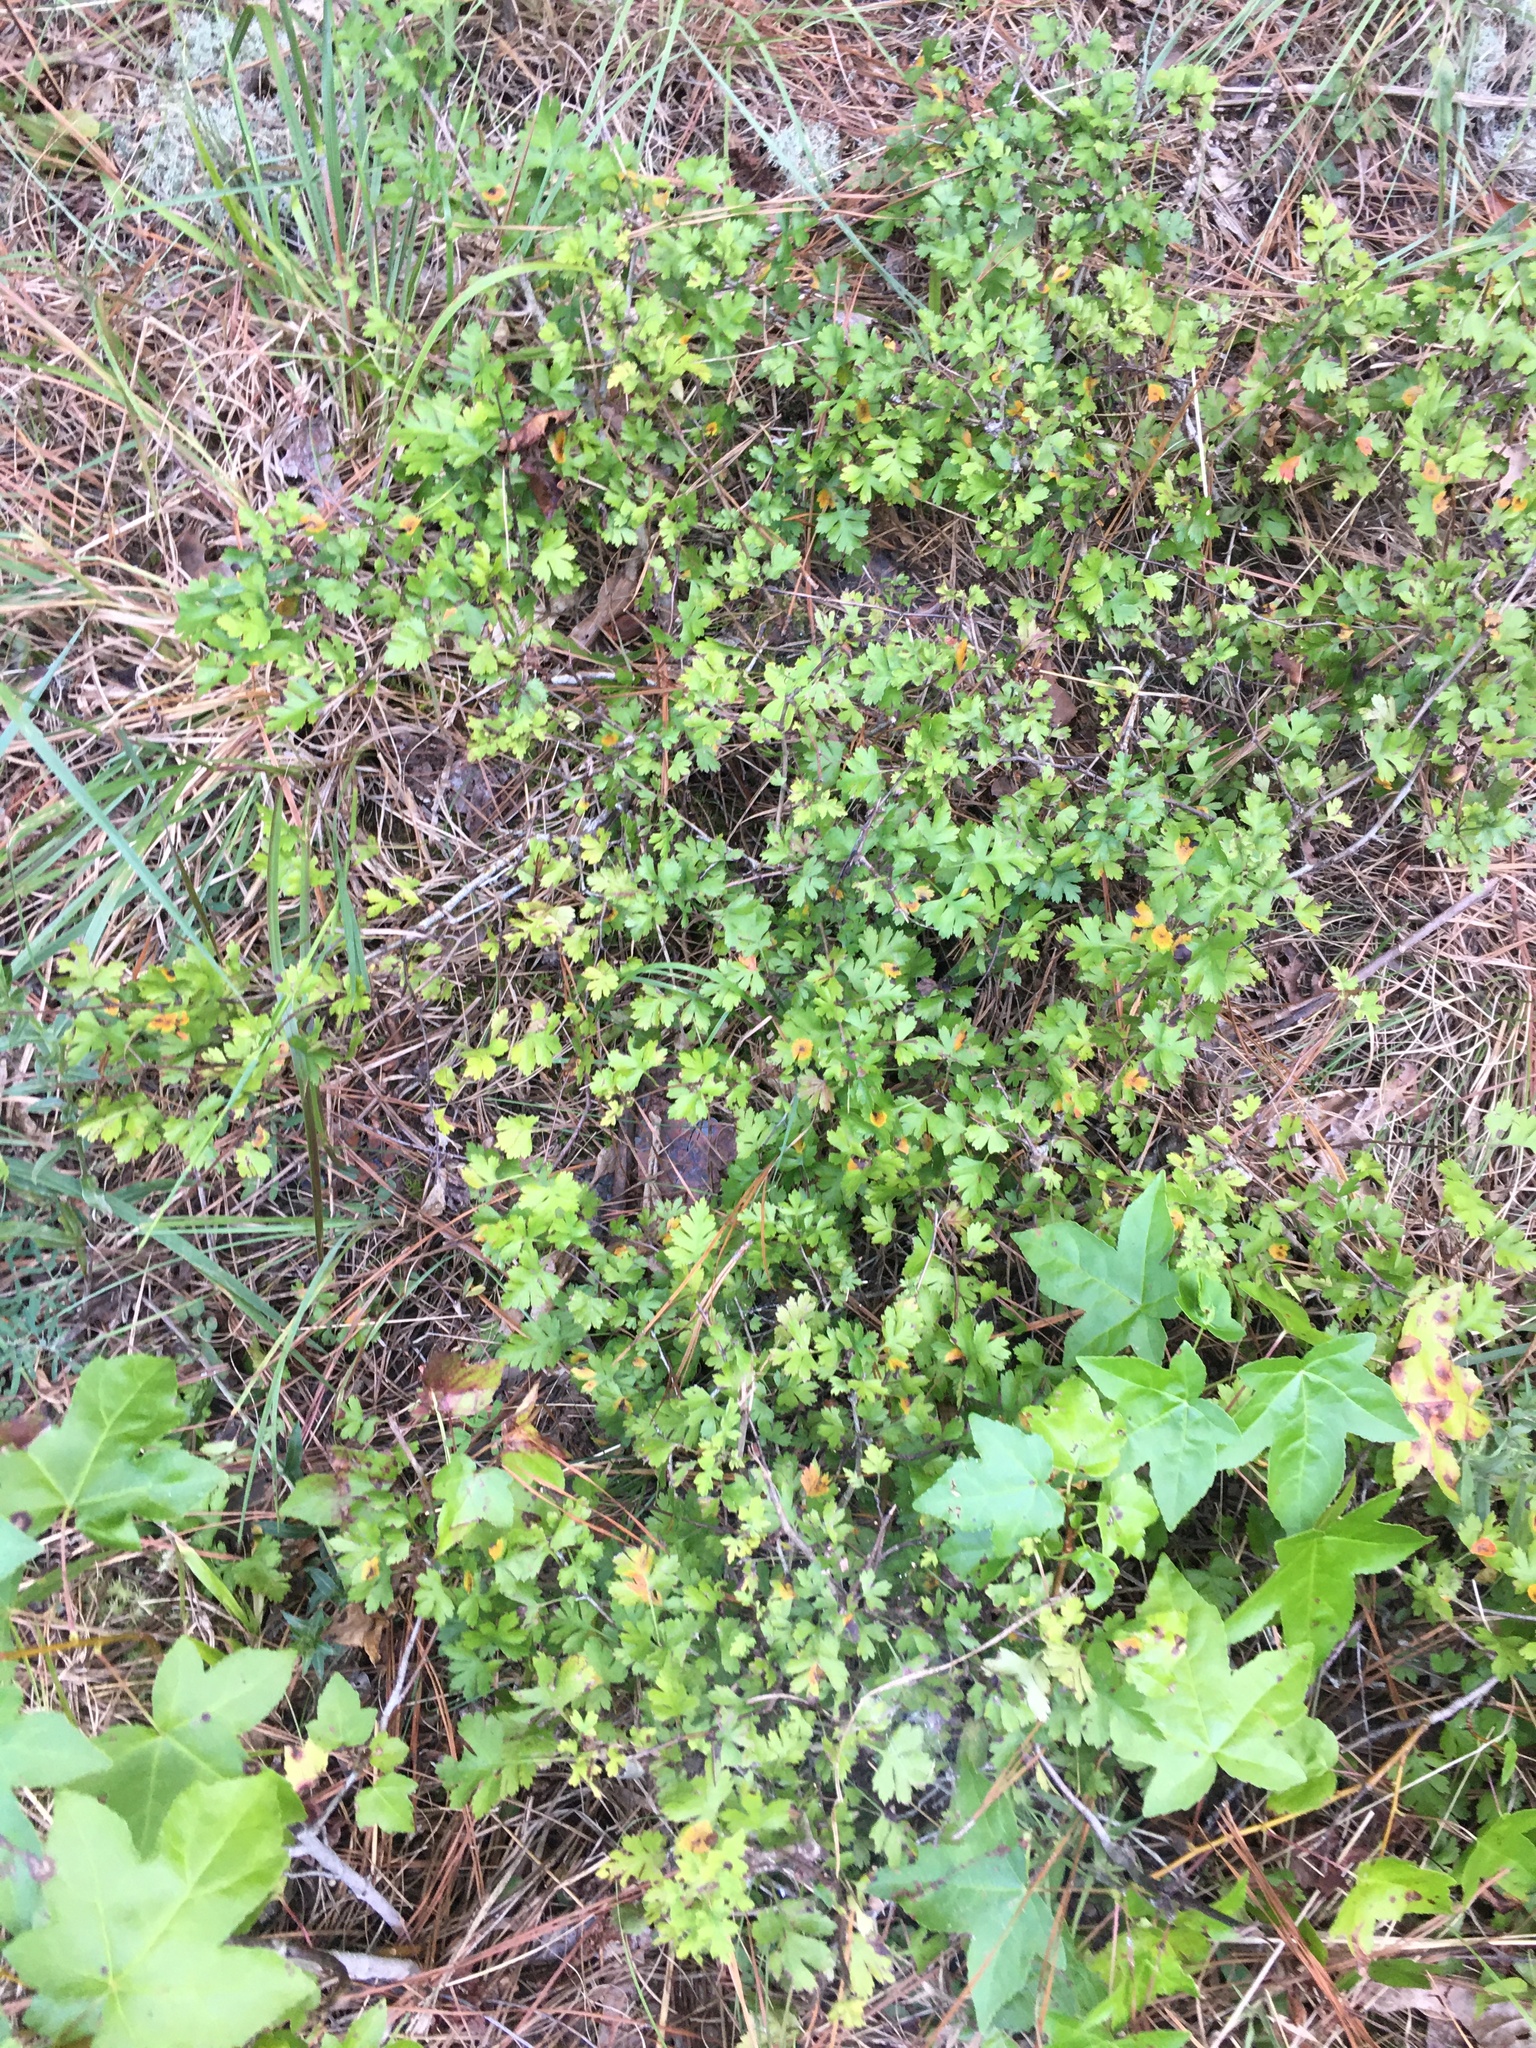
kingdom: Plantae
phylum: Tracheophyta
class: Magnoliopsida
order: Rosales
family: Rosaceae
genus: Crataegus
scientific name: Crataegus marshallii
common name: Parsley-hawthorn
